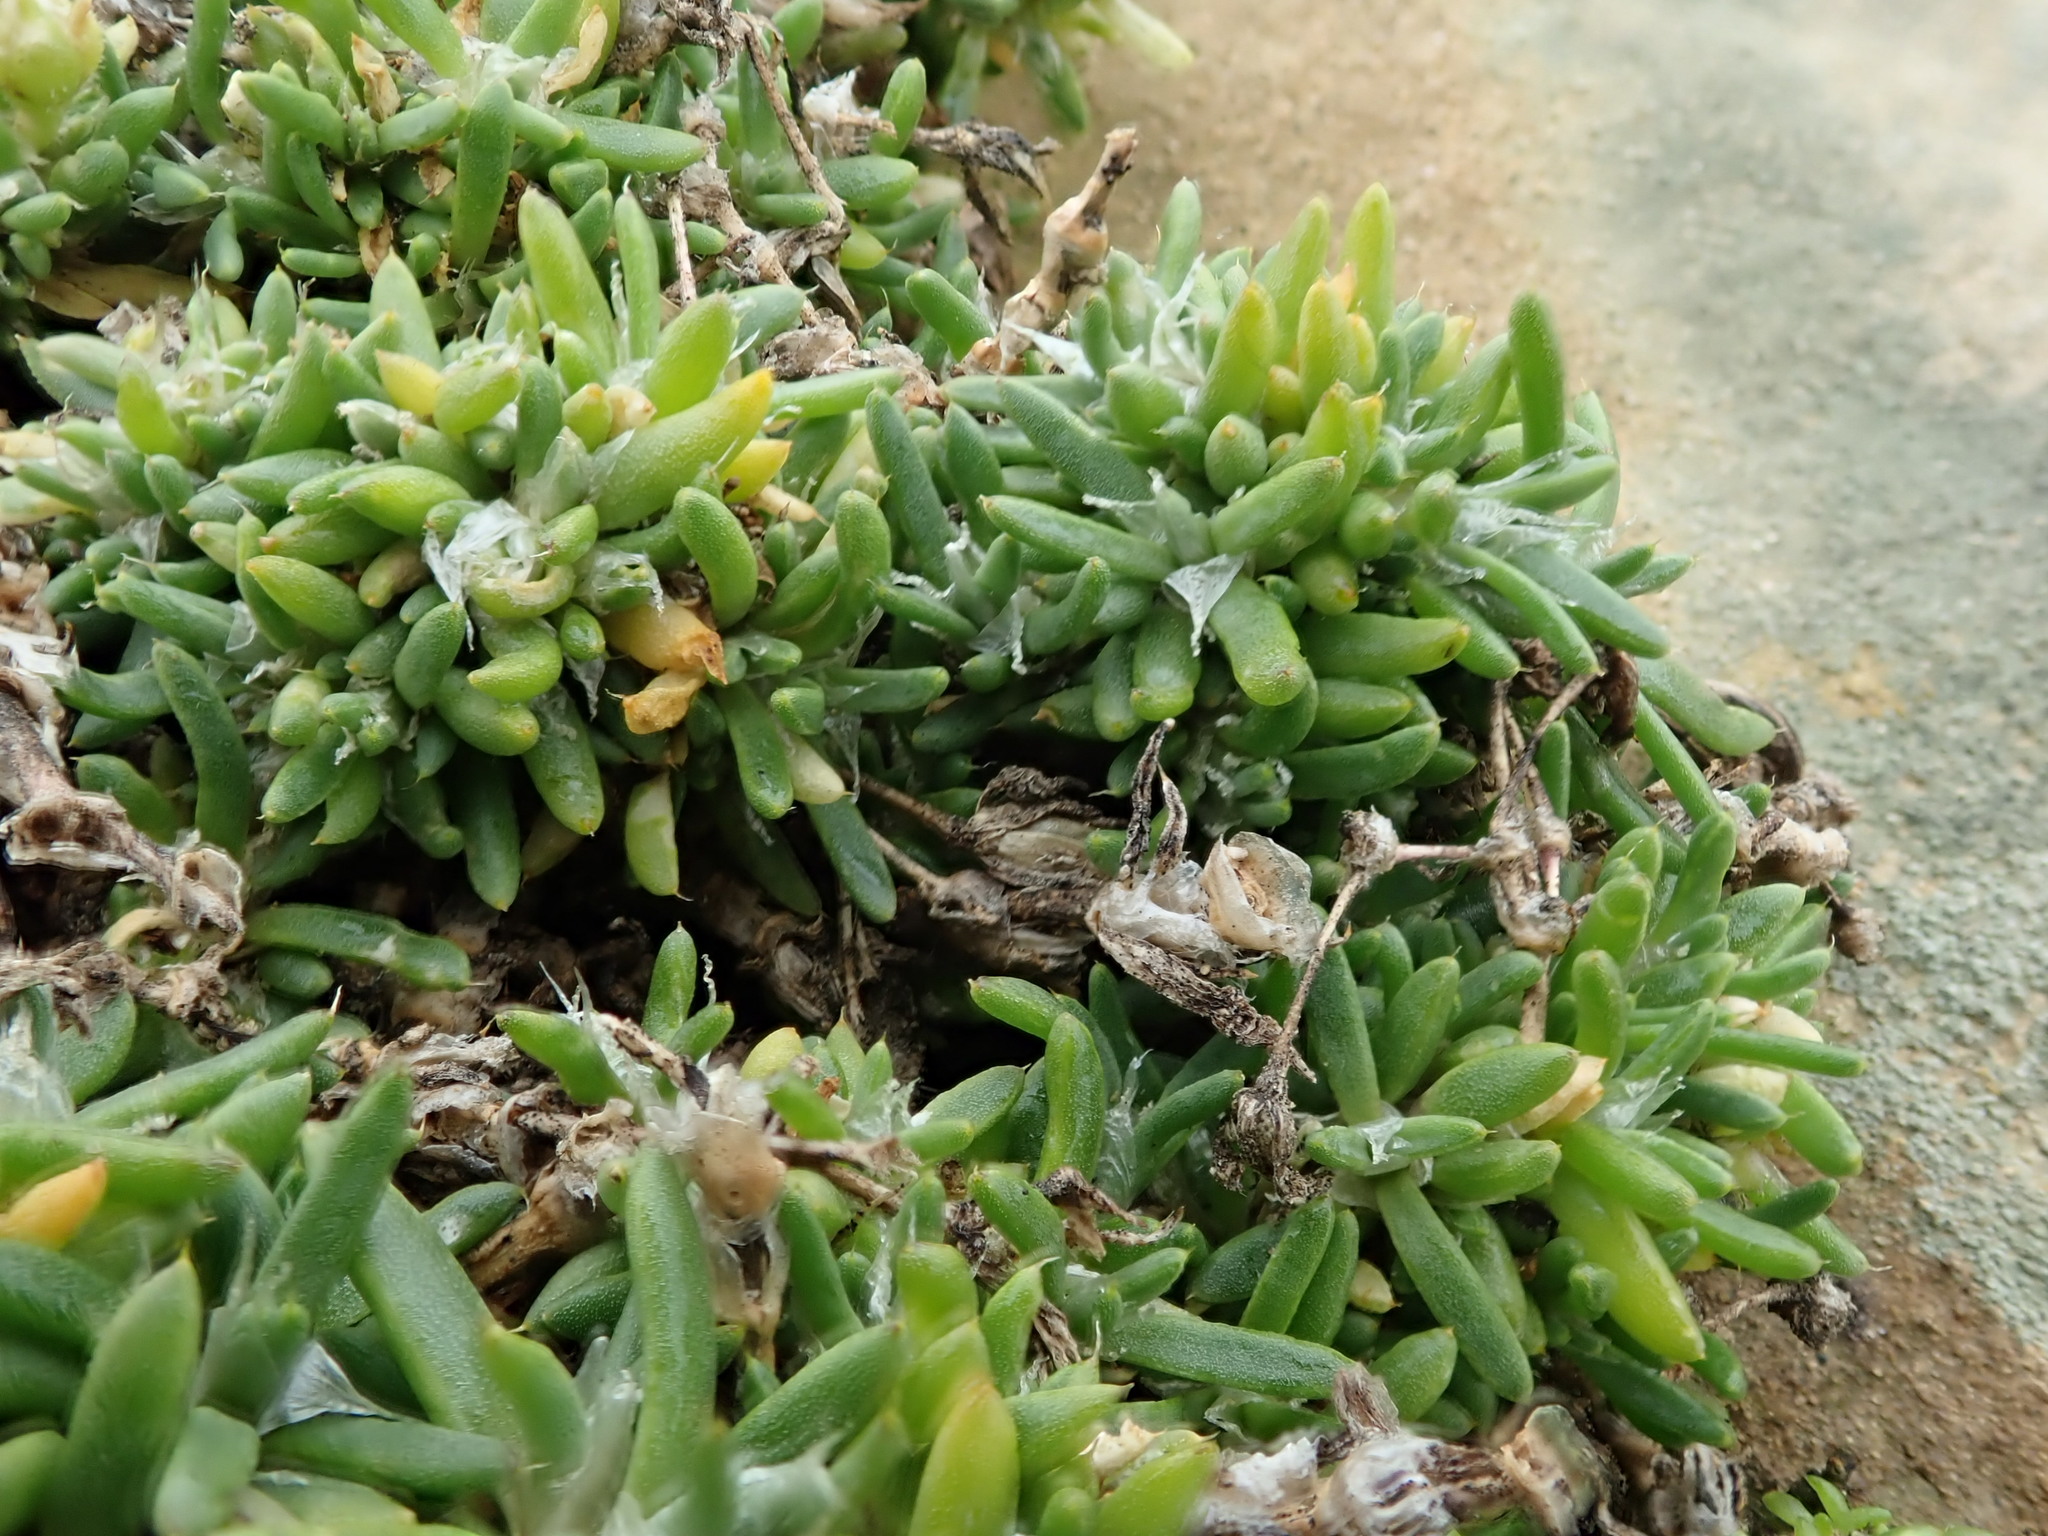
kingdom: Plantae
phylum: Tracheophyta
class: Magnoliopsida
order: Caryophyllales
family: Caryophyllaceae
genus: Spergularia
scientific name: Spergularia macrotheca
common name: Beach sand-spurrey
